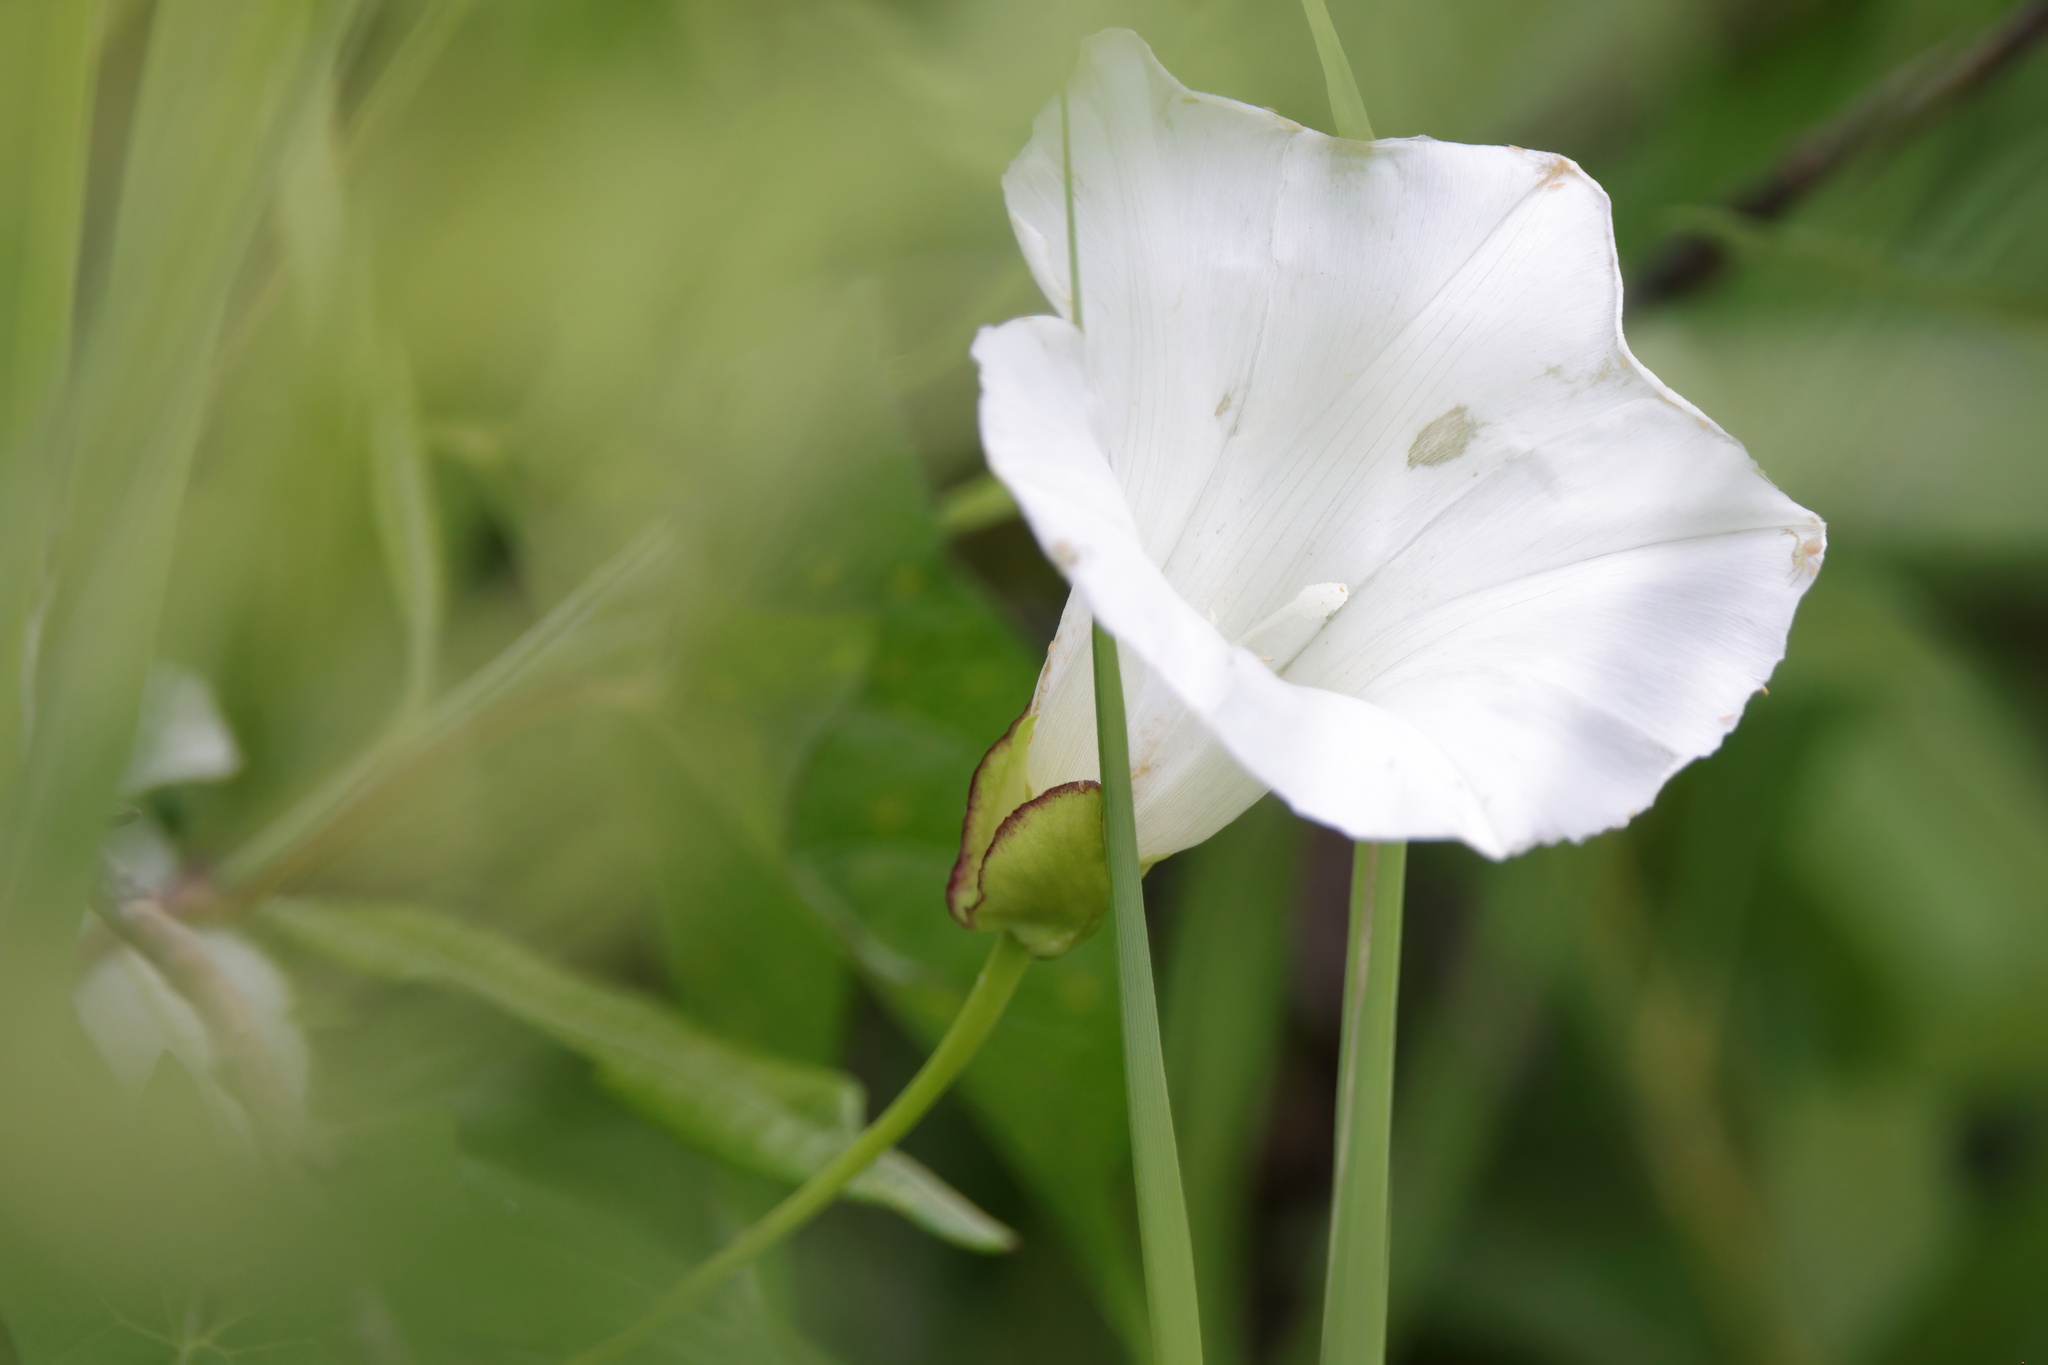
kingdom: Plantae
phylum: Tracheophyta
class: Magnoliopsida
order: Solanales
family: Convolvulaceae
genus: Calystegia
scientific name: Calystegia sepium
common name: Hedge bindweed
